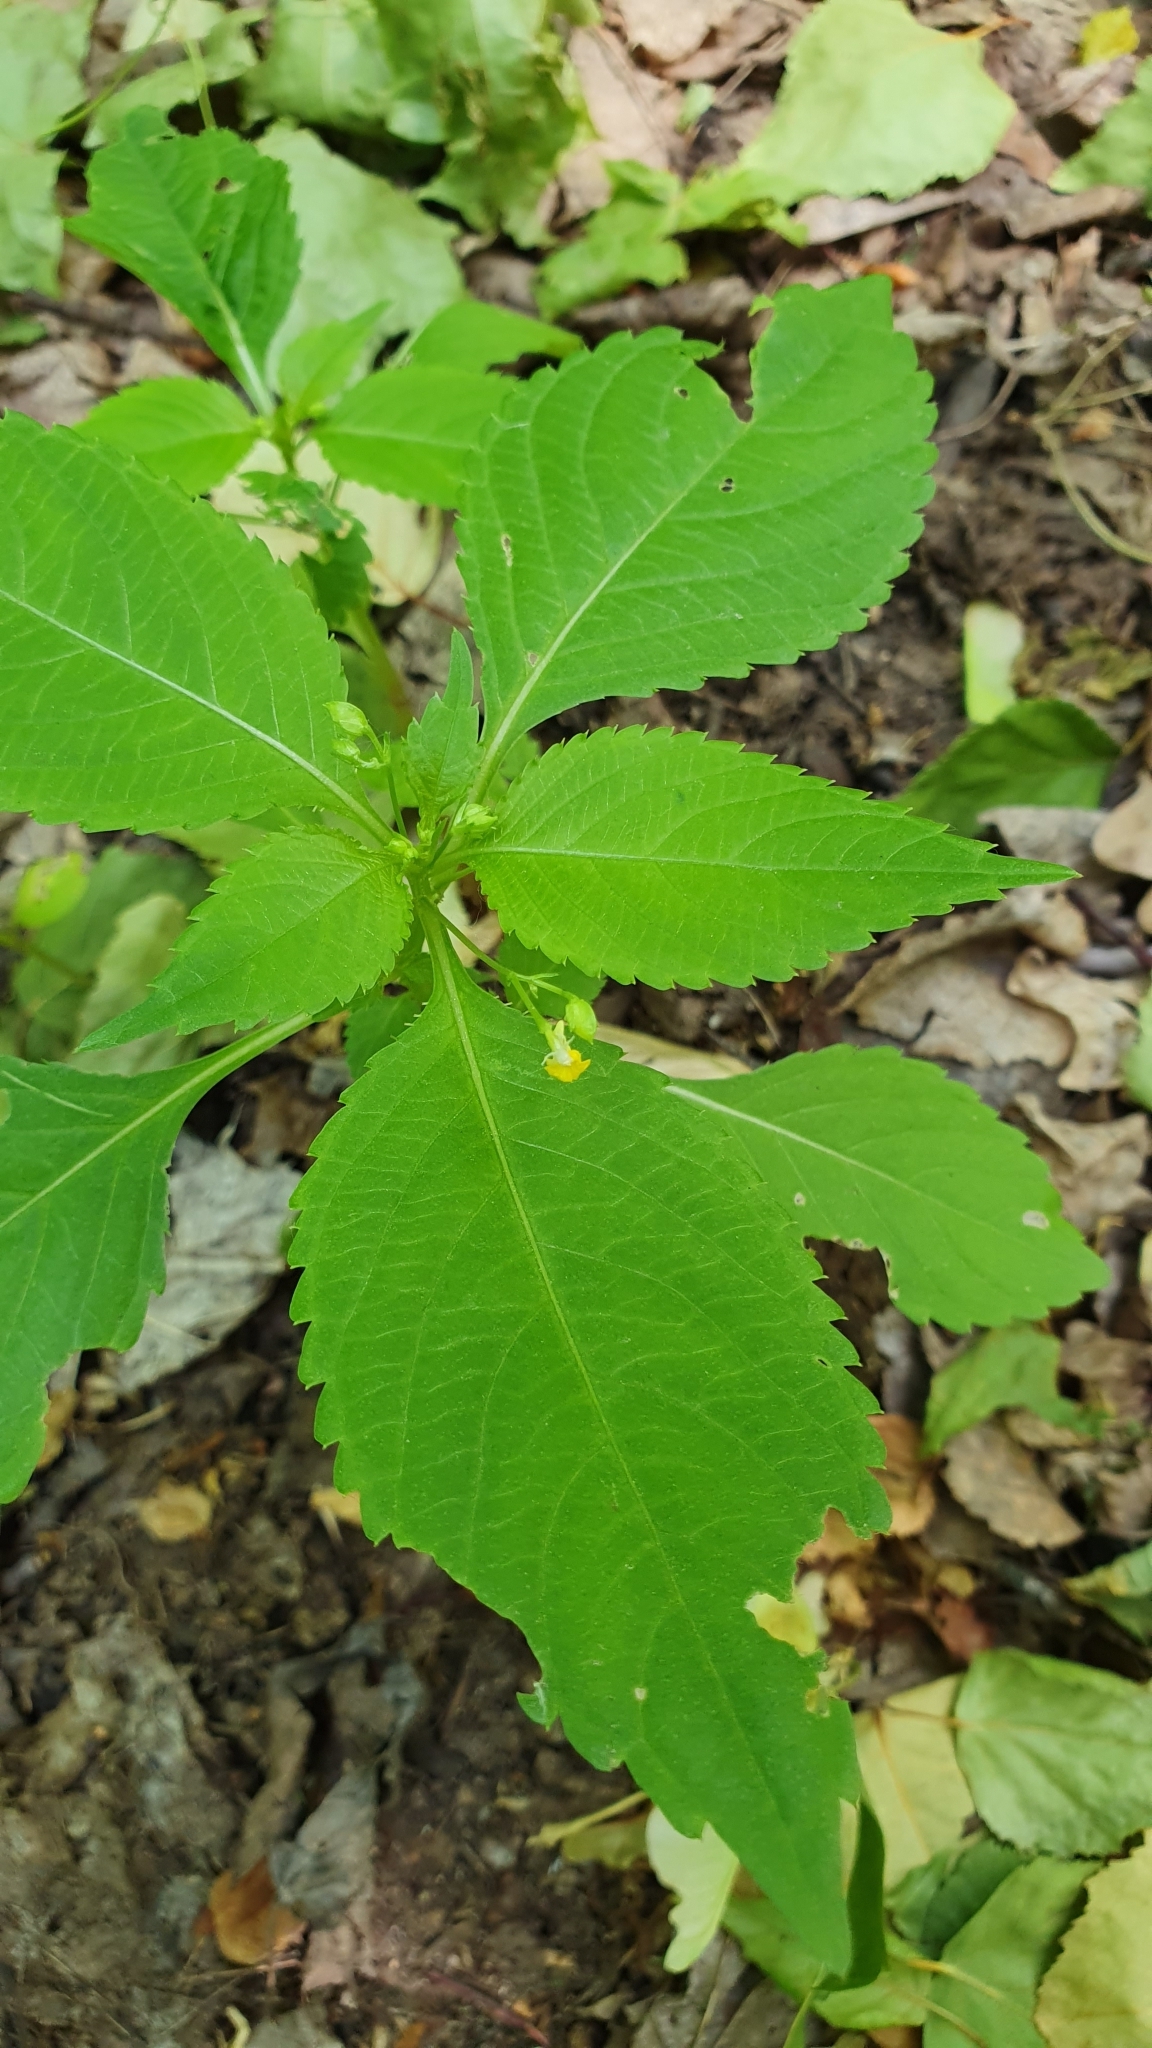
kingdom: Plantae
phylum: Tracheophyta
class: Magnoliopsida
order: Ericales
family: Balsaminaceae
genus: Impatiens
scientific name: Impatiens parviflora
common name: Small balsam
